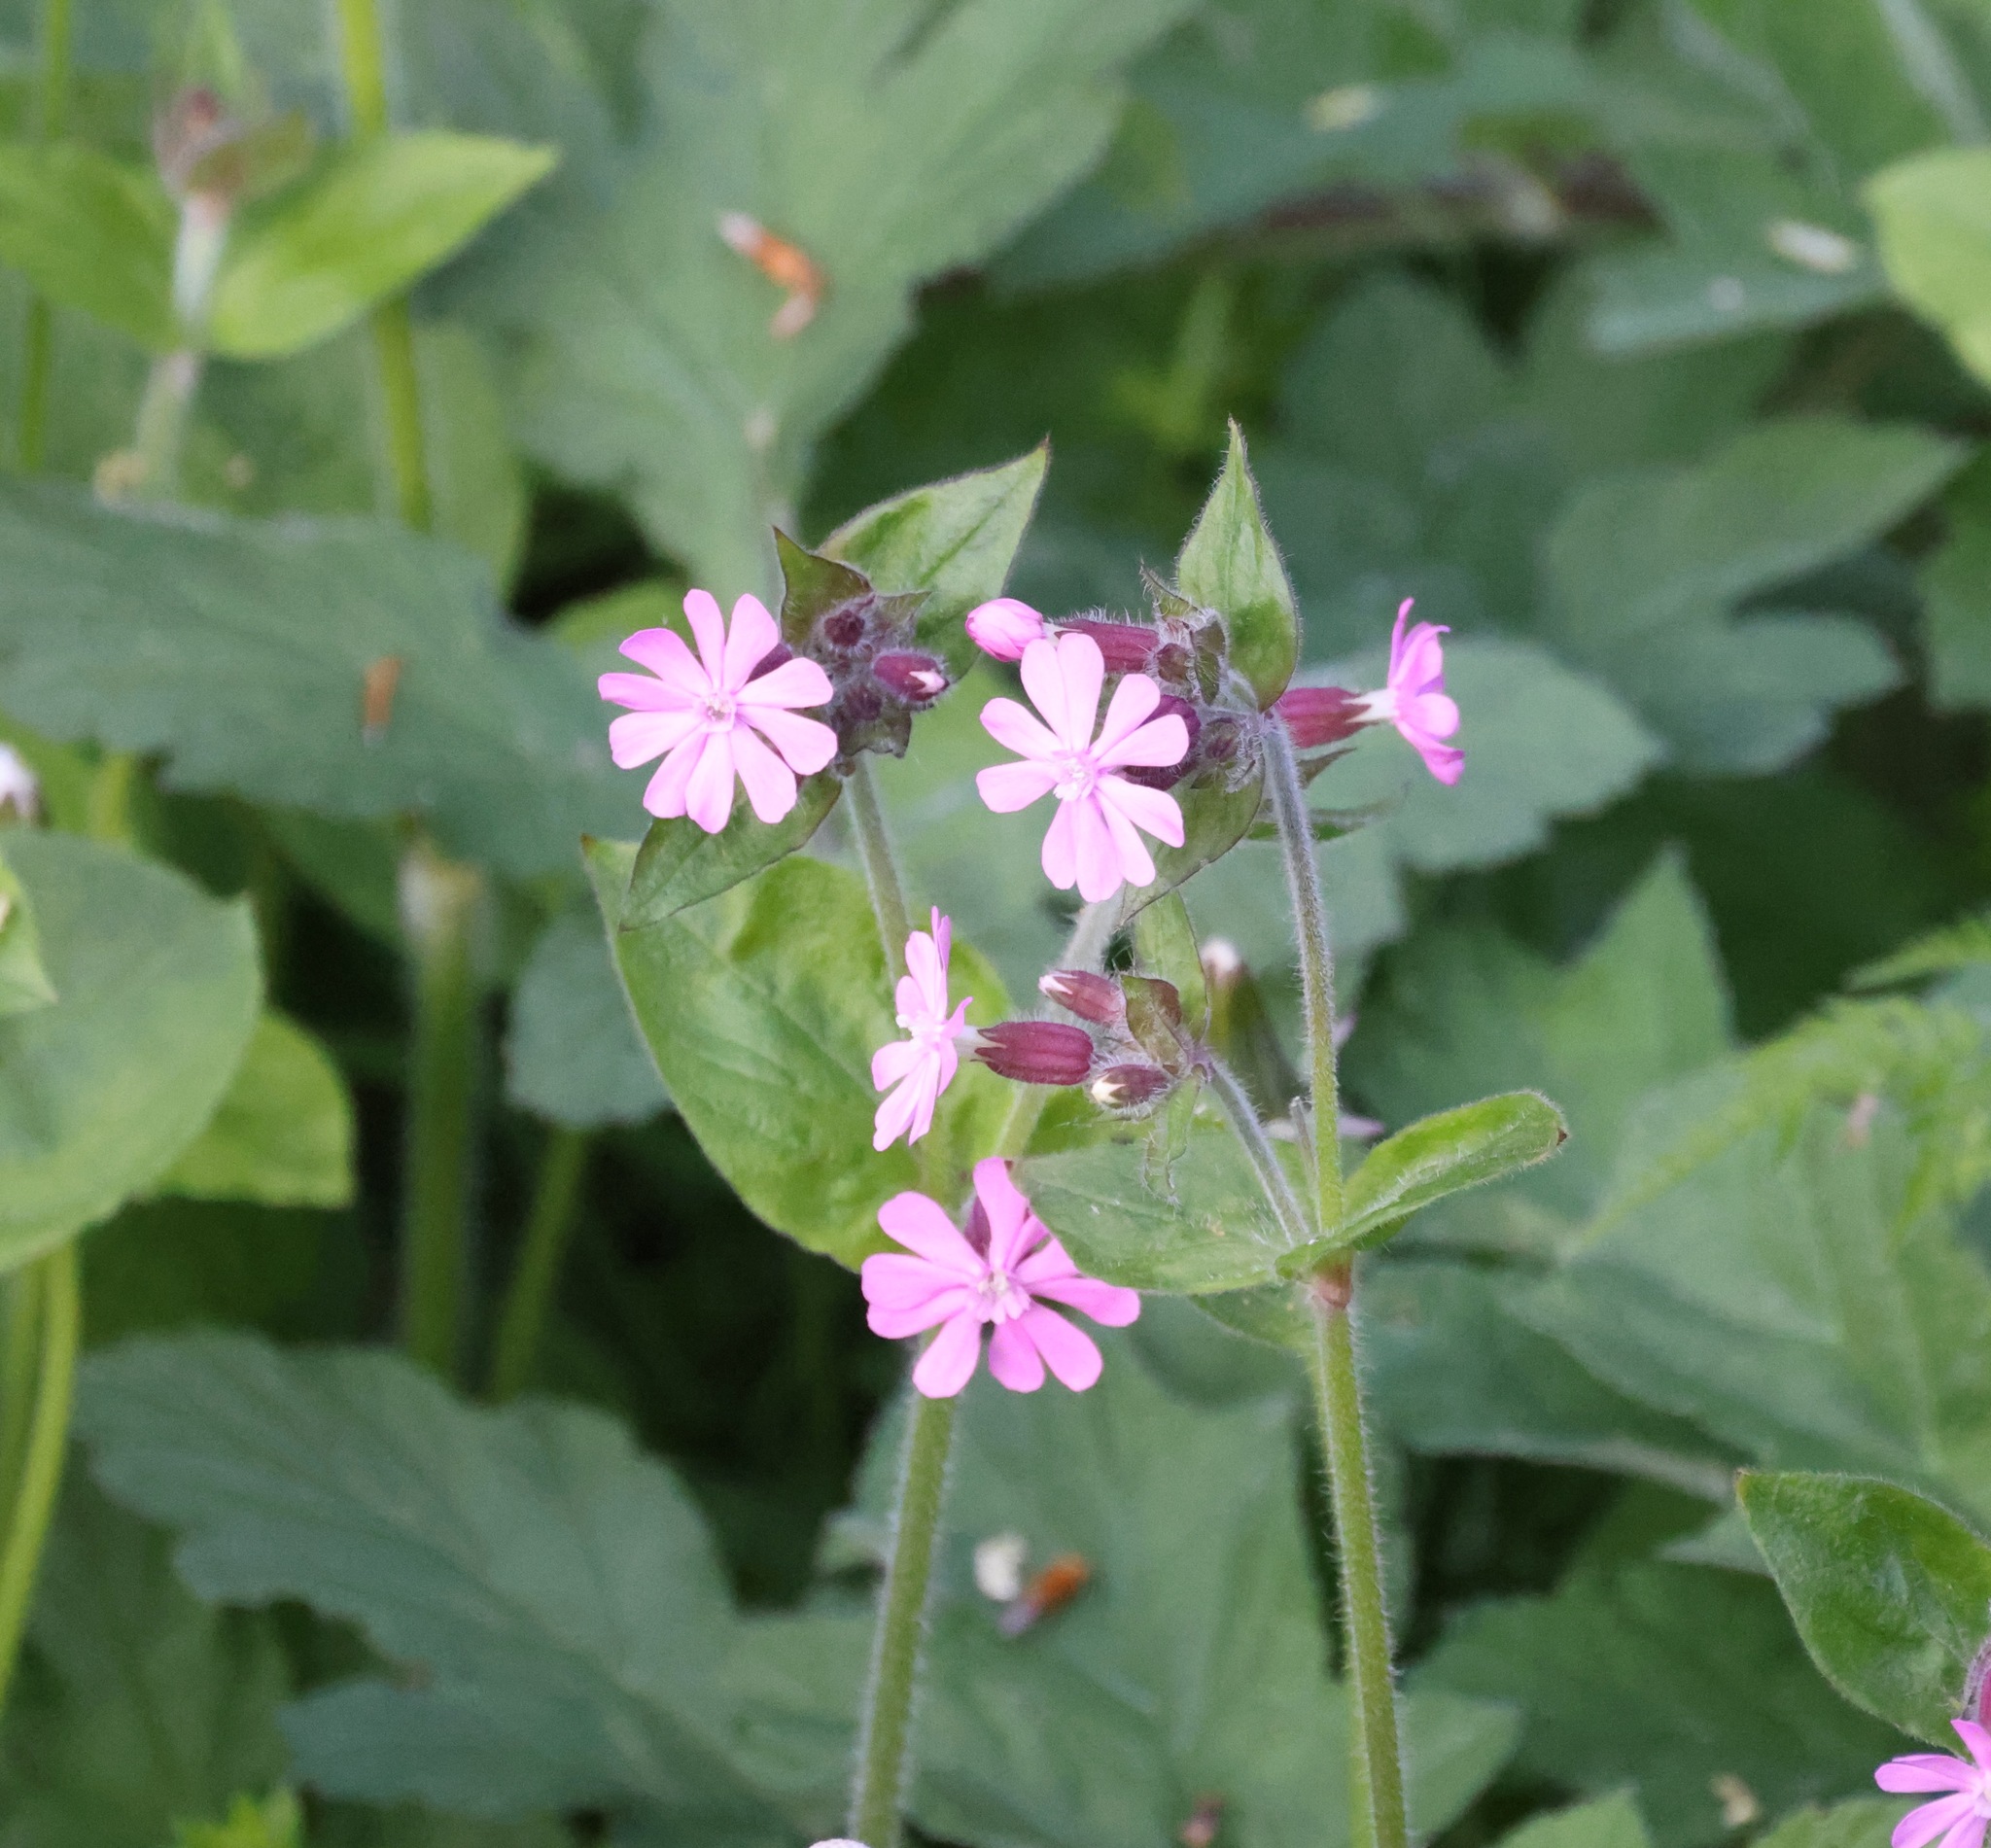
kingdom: Plantae
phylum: Tracheophyta
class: Magnoliopsida
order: Caryophyllales
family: Caryophyllaceae
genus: Silene
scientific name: Silene dioica
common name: Red campion
